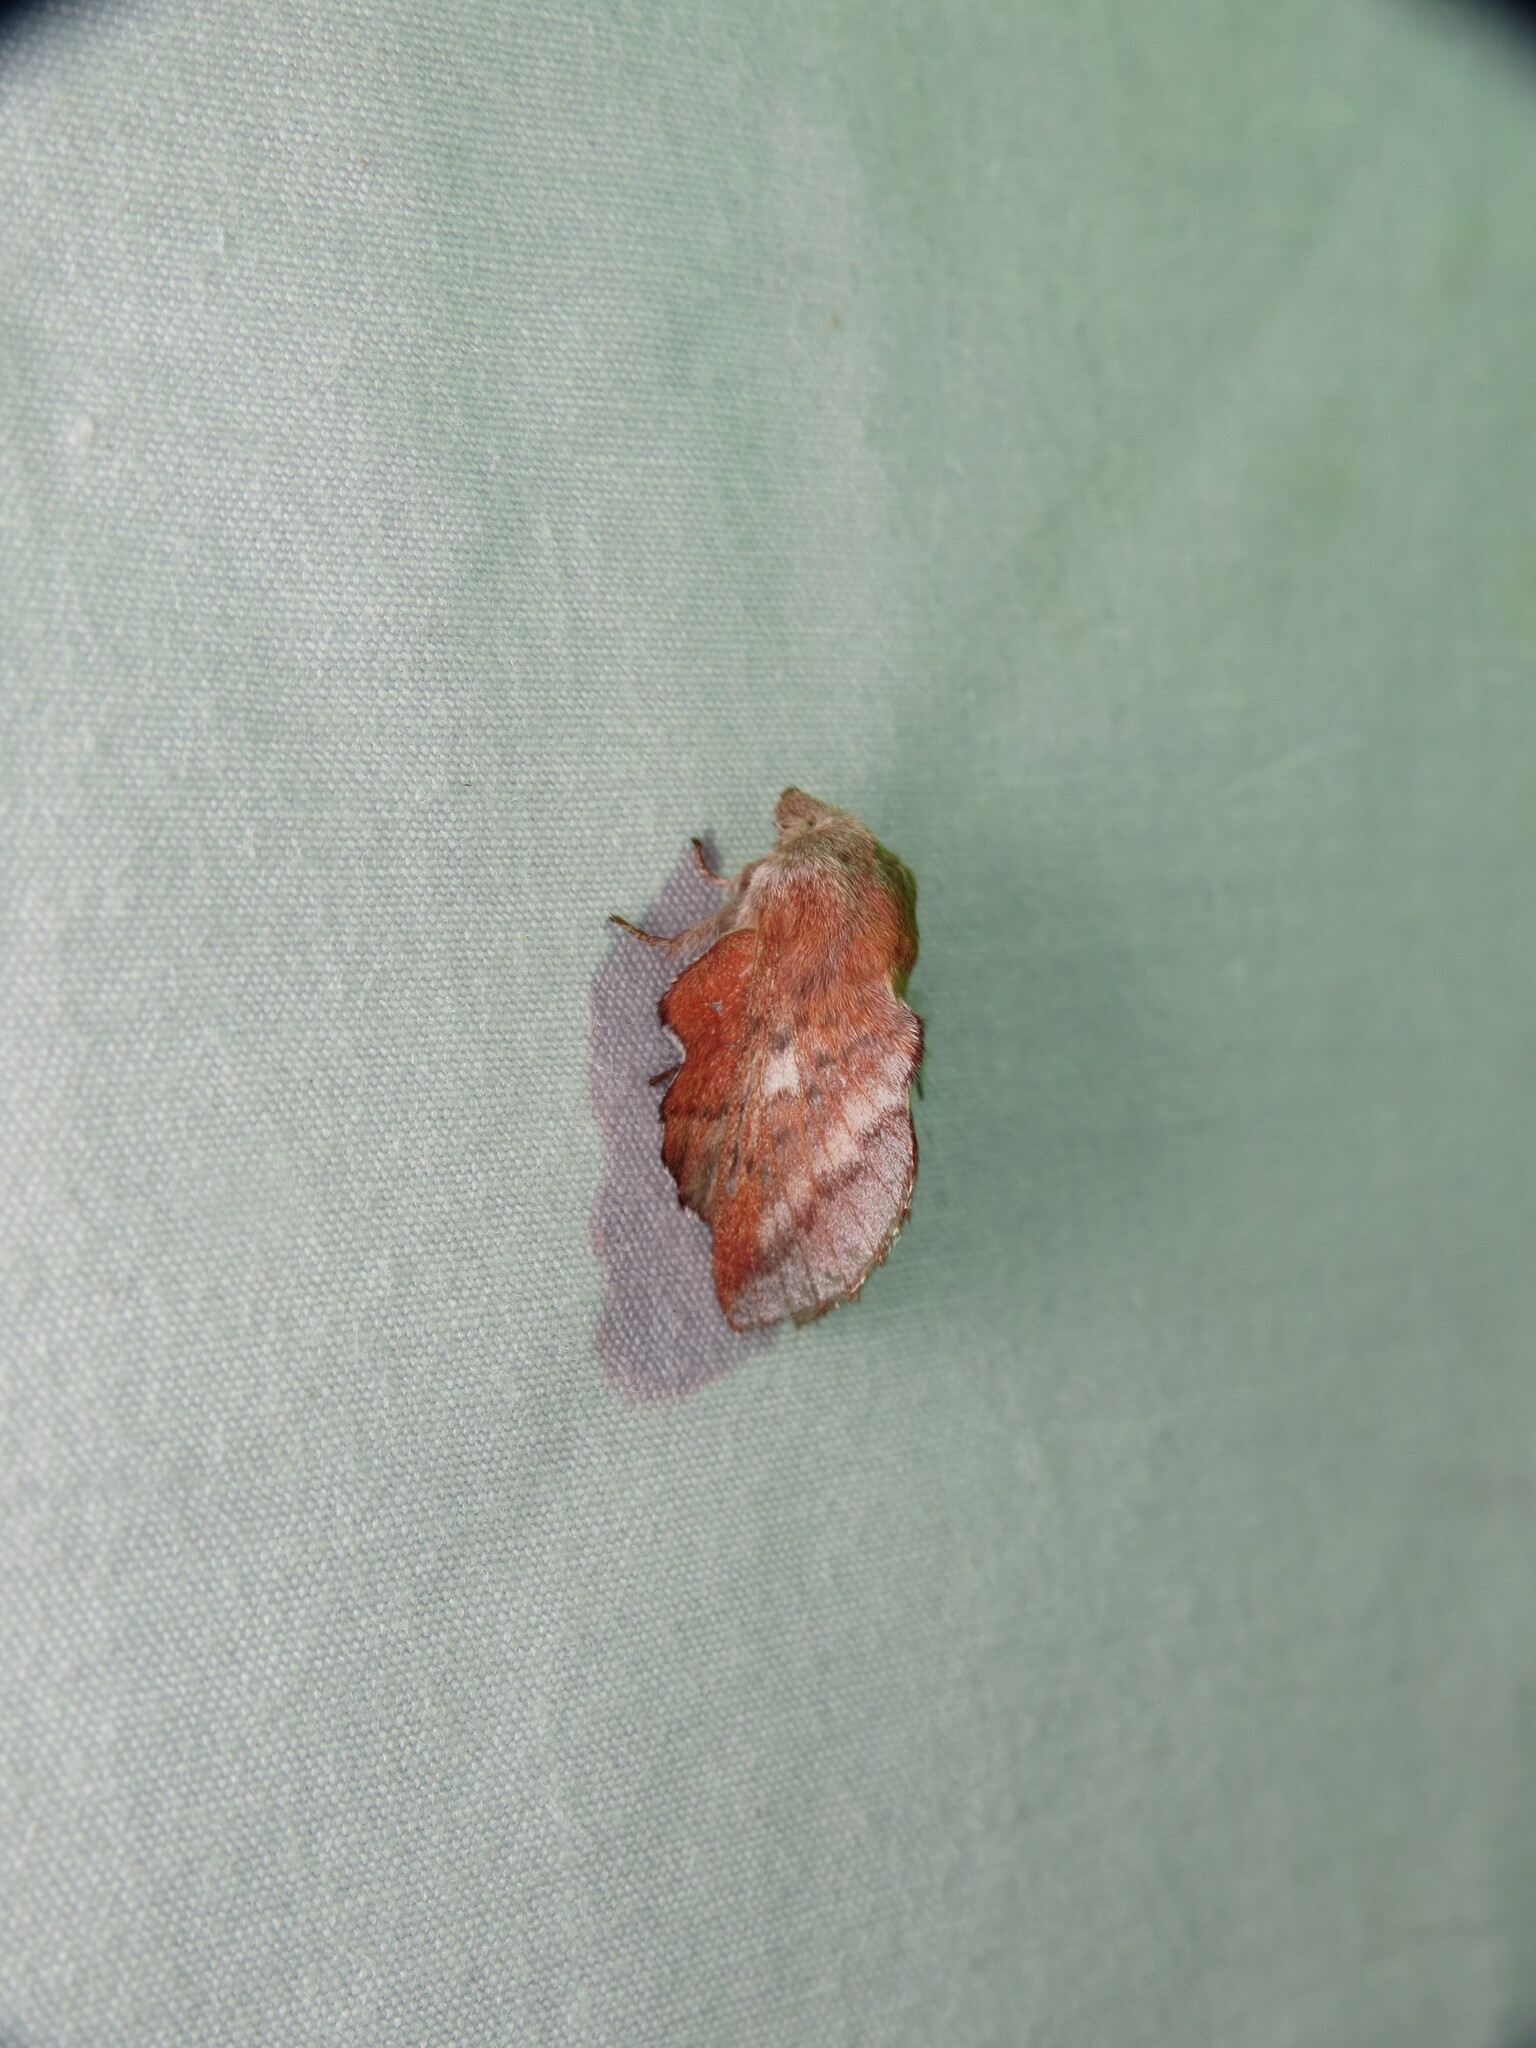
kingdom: Animalia
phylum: Arthropoda
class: Insecta
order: Lepidoptera
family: Lasiocampidae
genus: Phyllodesma
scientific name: Phyllodesma americana
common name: American lappet moth
